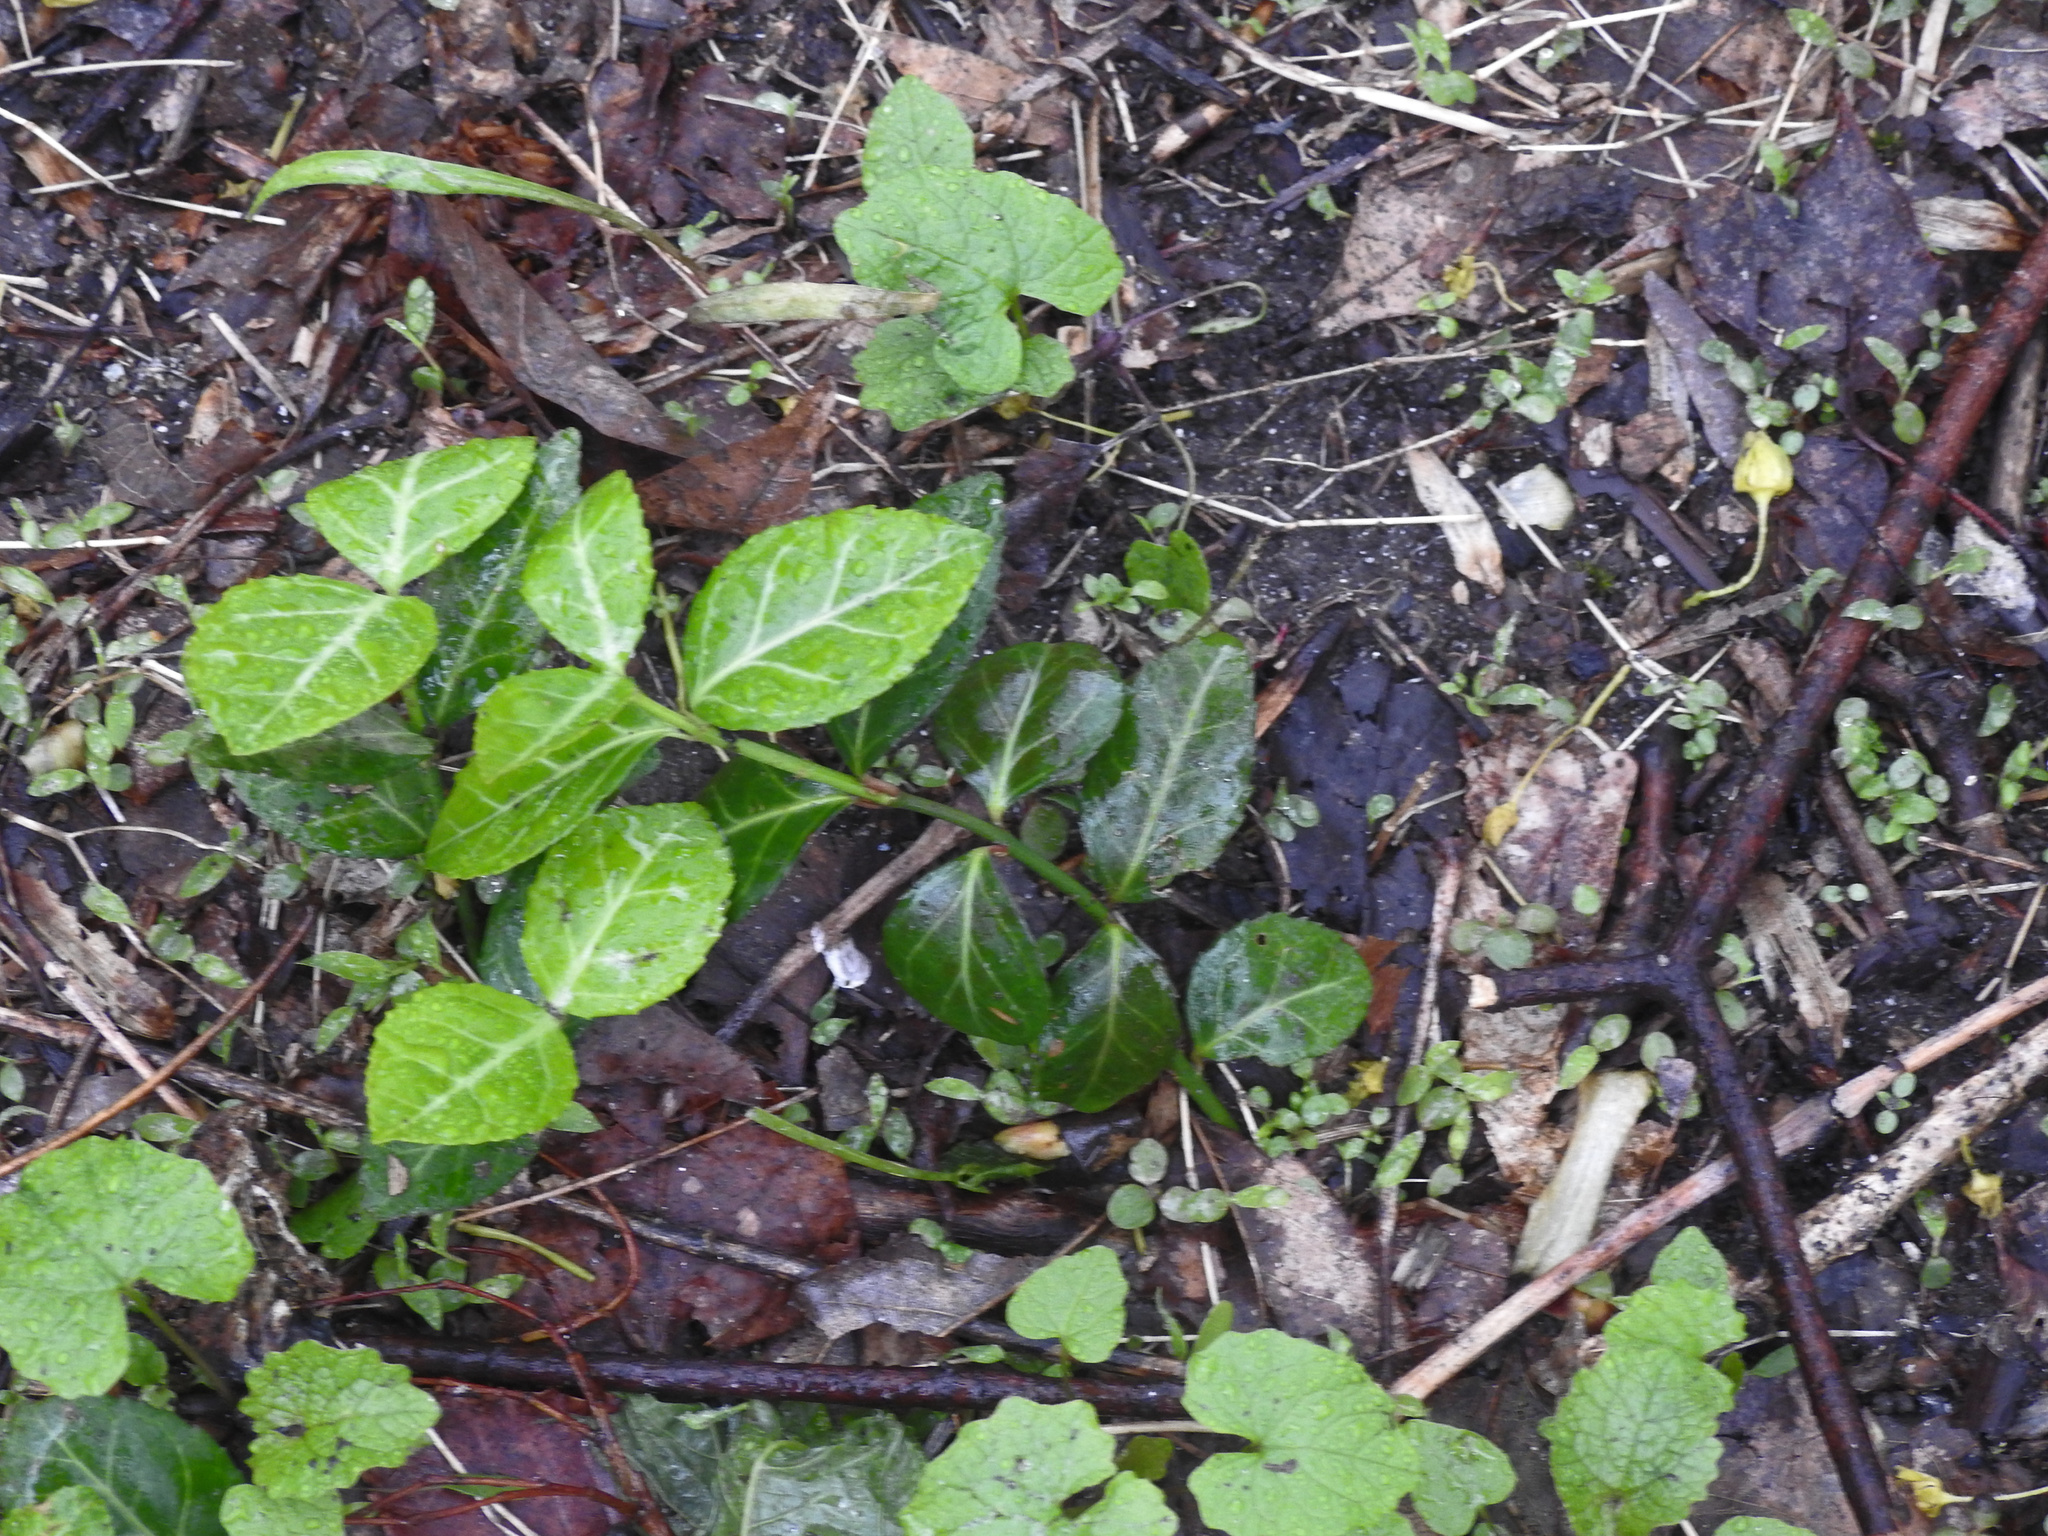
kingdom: Plantae
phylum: Tracheophyta
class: Magnoliopsida
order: Celastrales
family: Celastraceae
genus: Euonymus
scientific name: Euonymus fortunei
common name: Climbing euonymus
